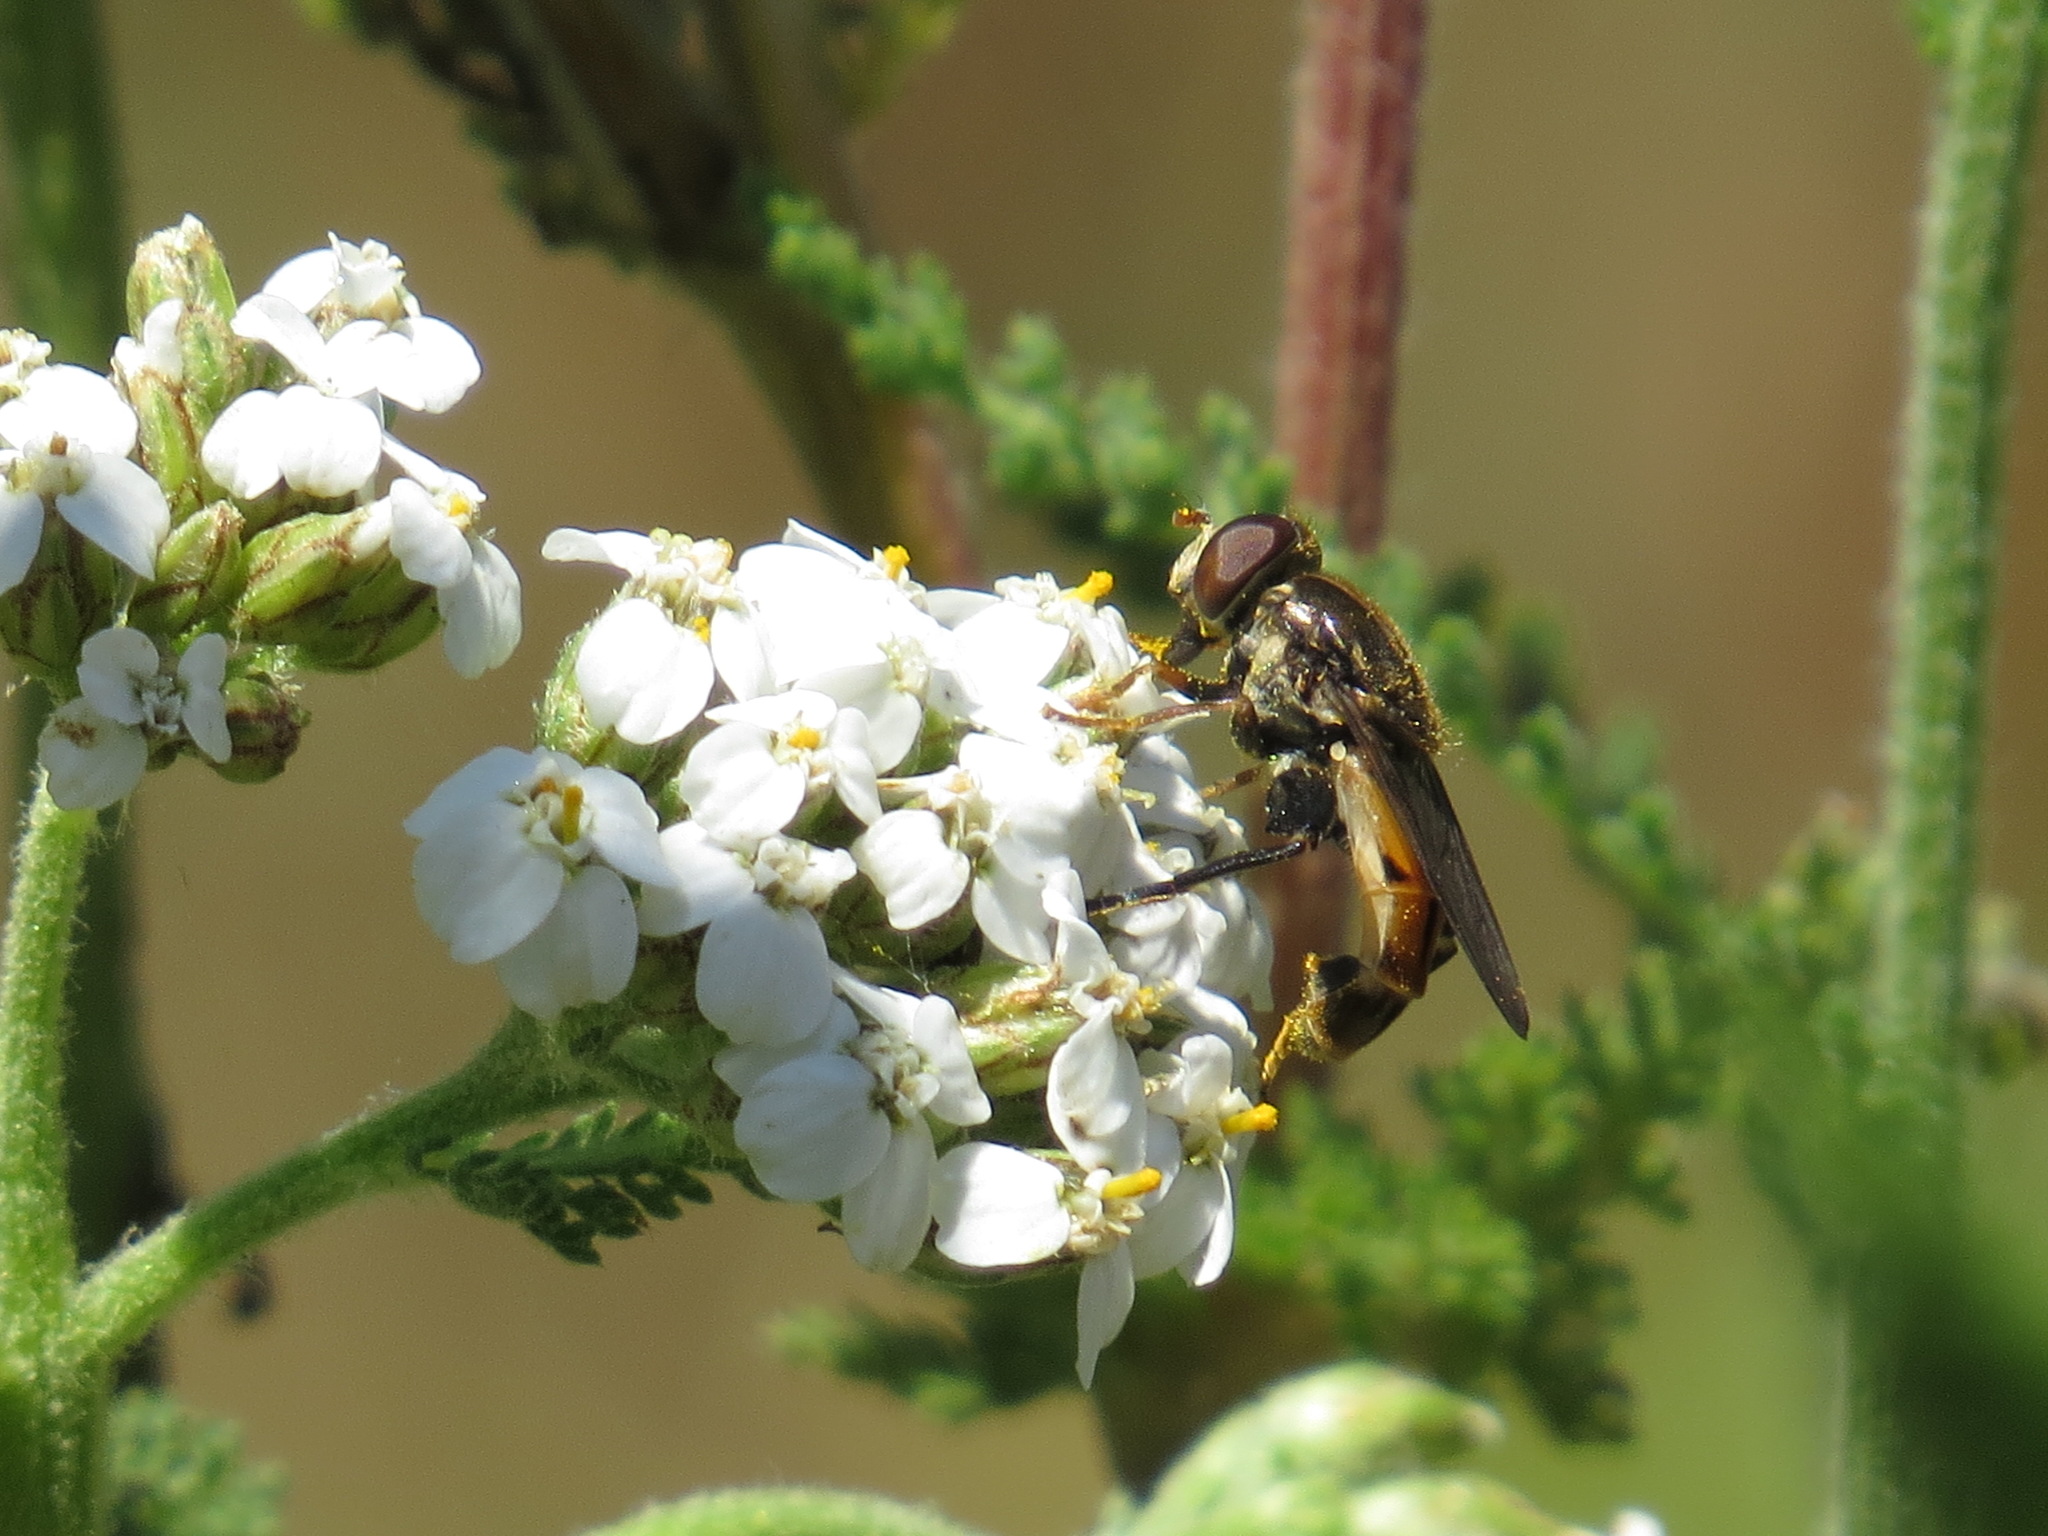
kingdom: Animalia
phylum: Arthropoda
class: Insecta
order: Diptera
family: Syrphidae
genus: Tropidia
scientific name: Tropidia quadrata
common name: Common thick-legged fly
